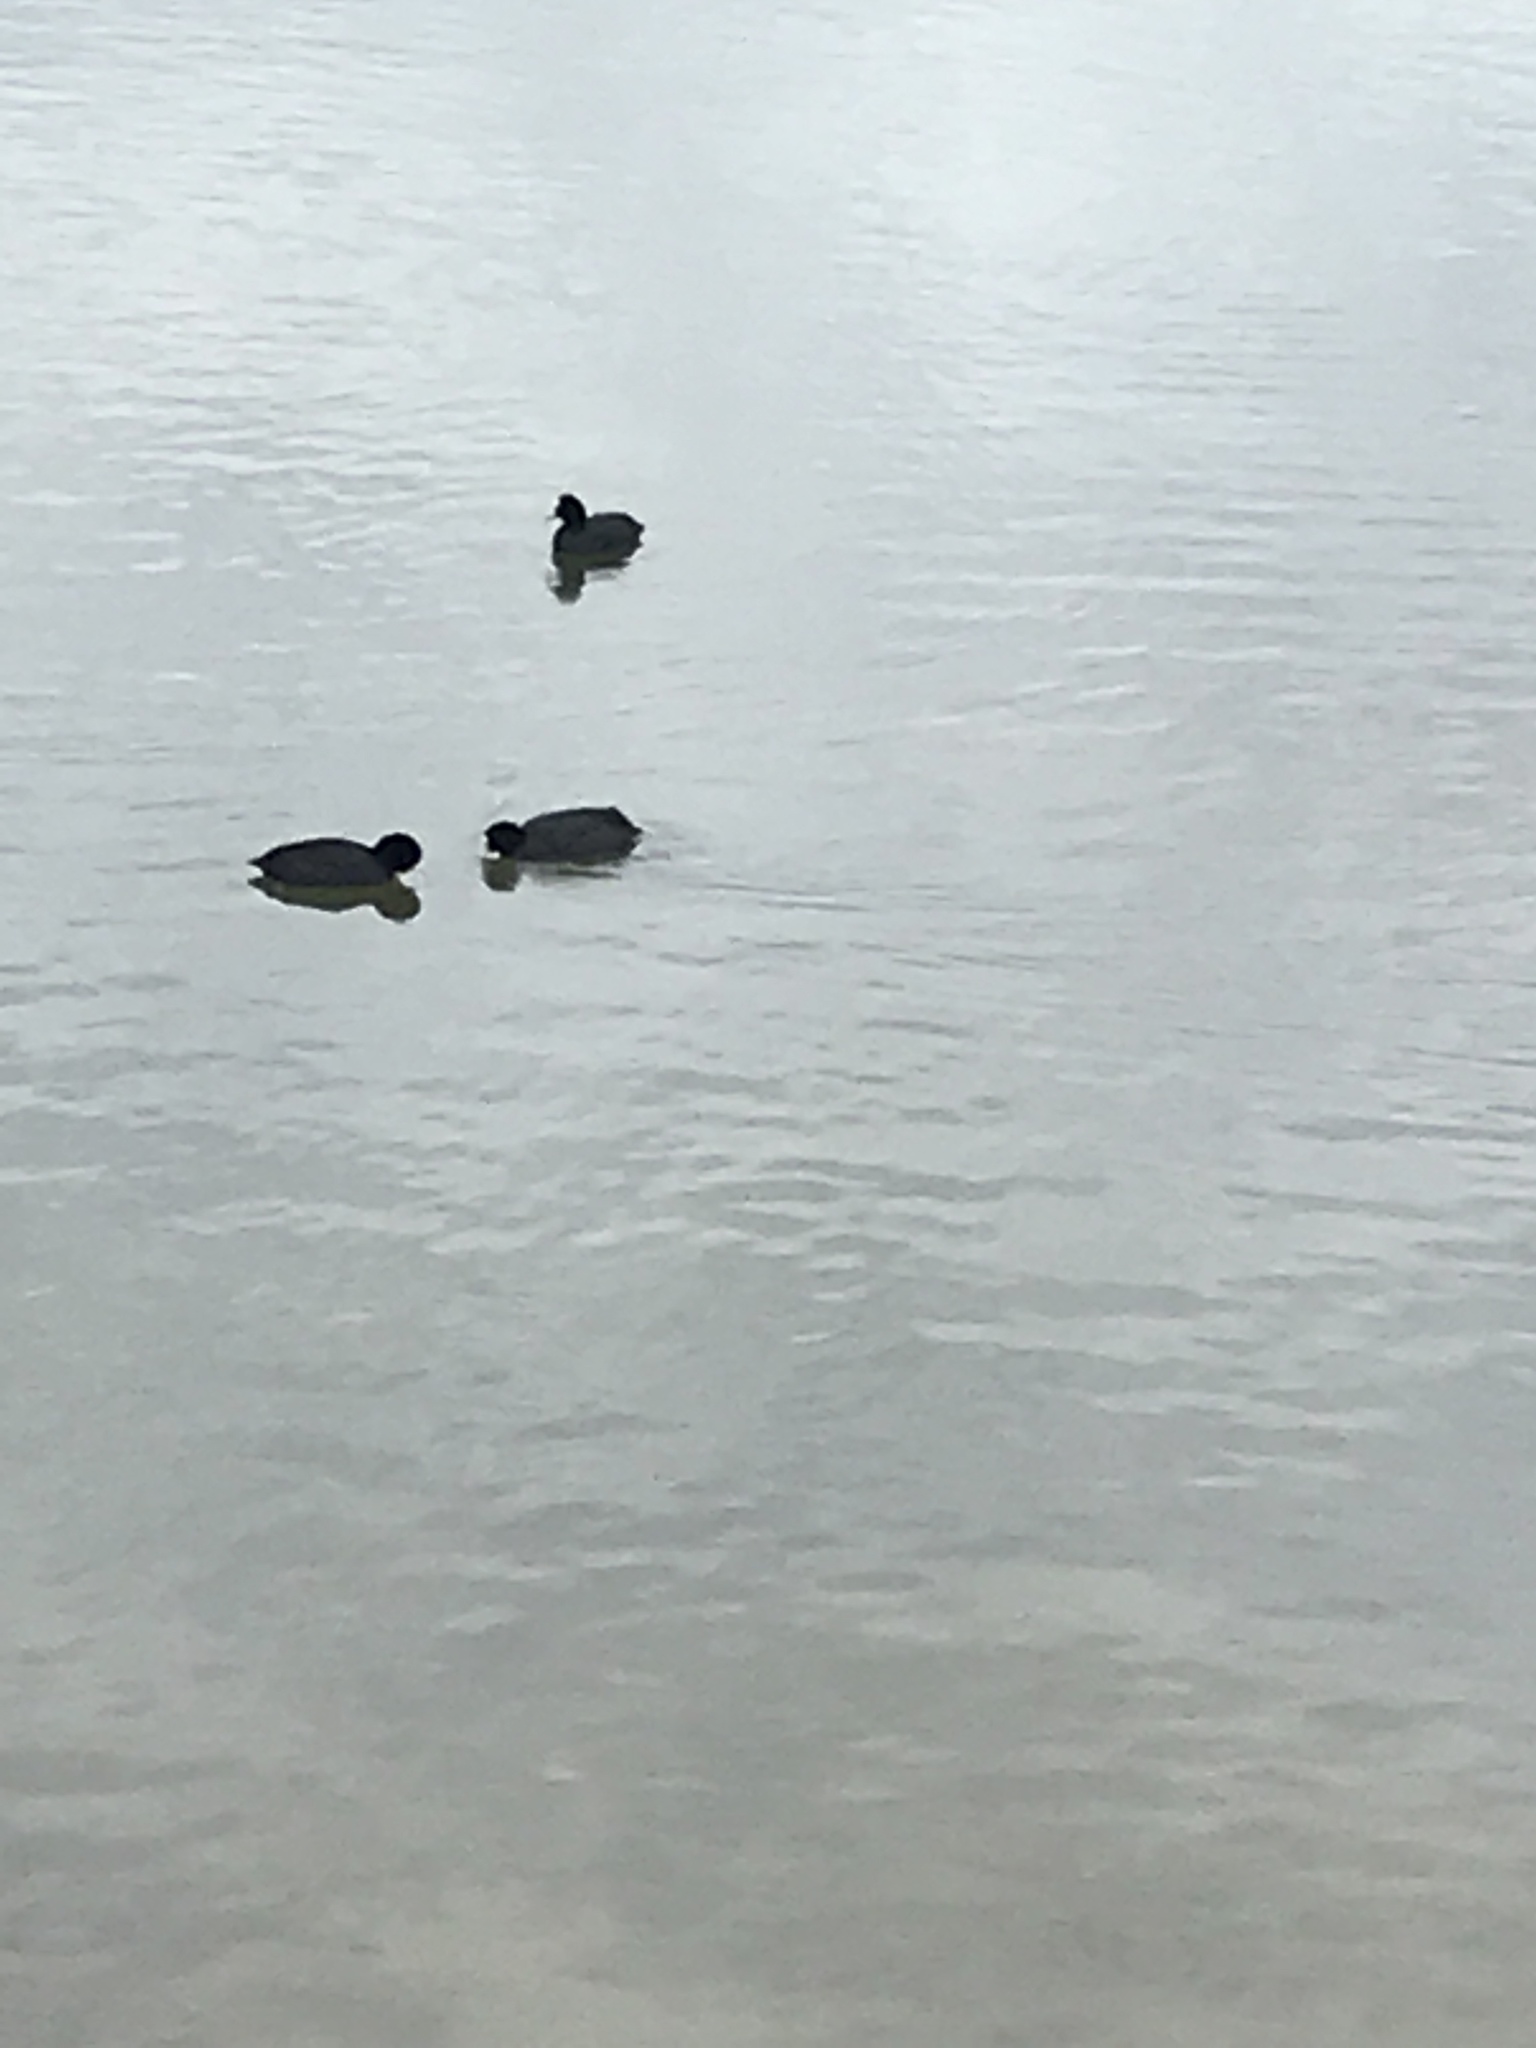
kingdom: Animalia
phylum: Chordata
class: Aves
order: Gruiformes
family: Rallidae
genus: Fulica
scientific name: Fulica atra
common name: Eurasian coot
